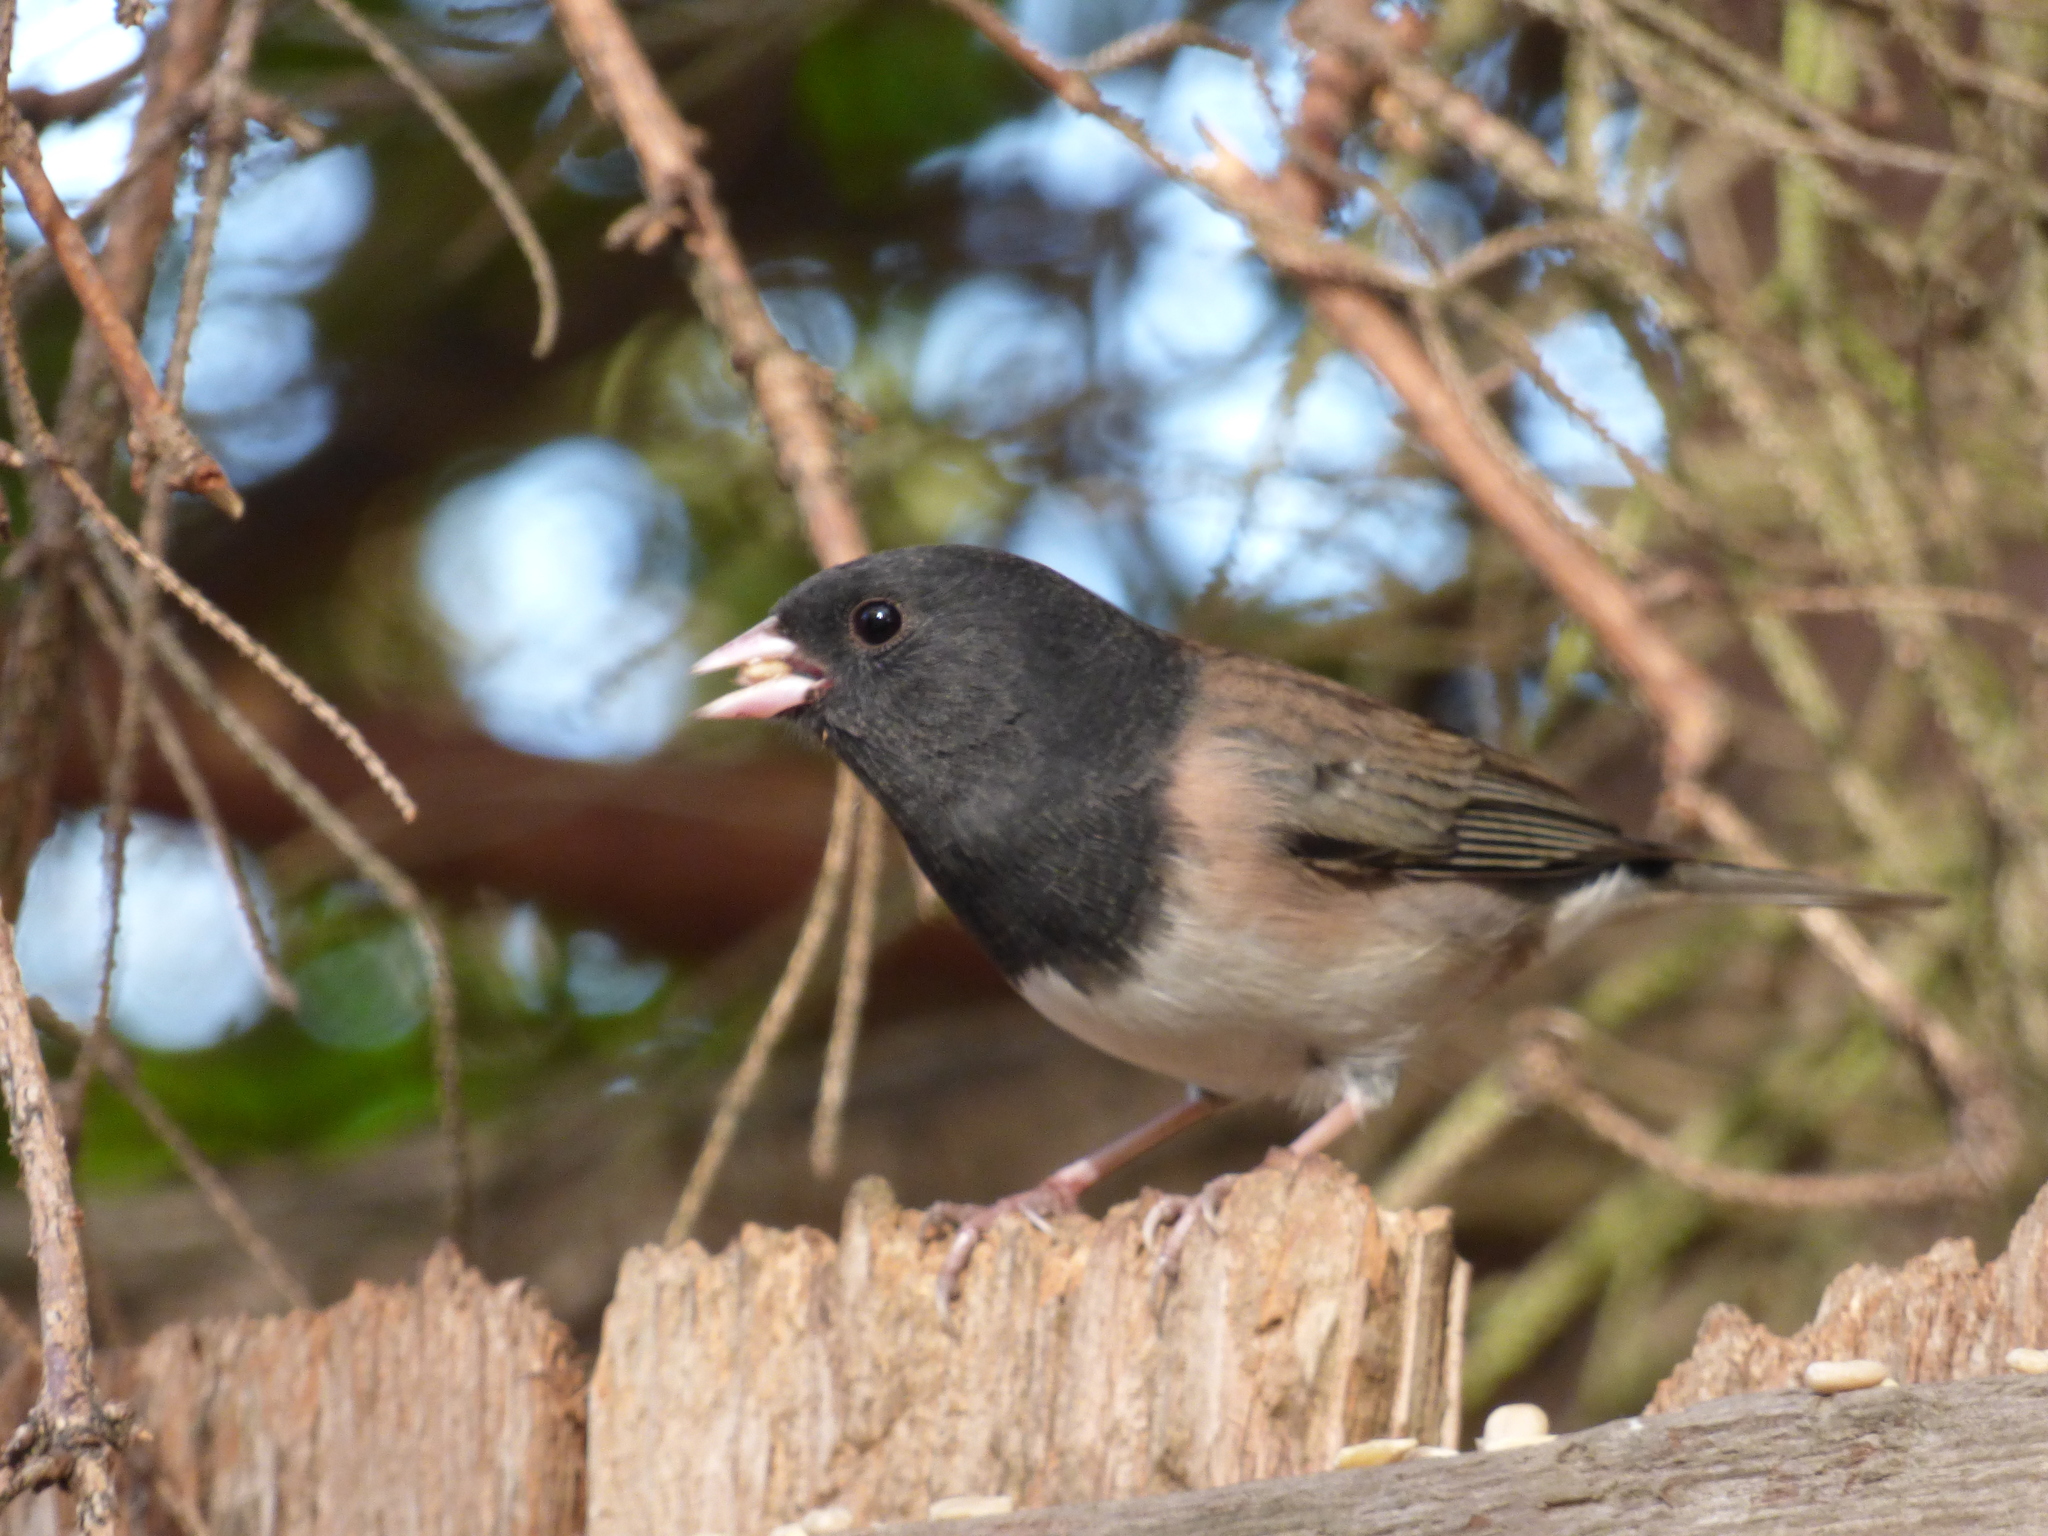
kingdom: Animalia
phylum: Chordata
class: Aves
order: Passeriformes
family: Passerellidae
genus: Junco
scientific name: Junco hyemalis
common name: Dark-eyed junco
